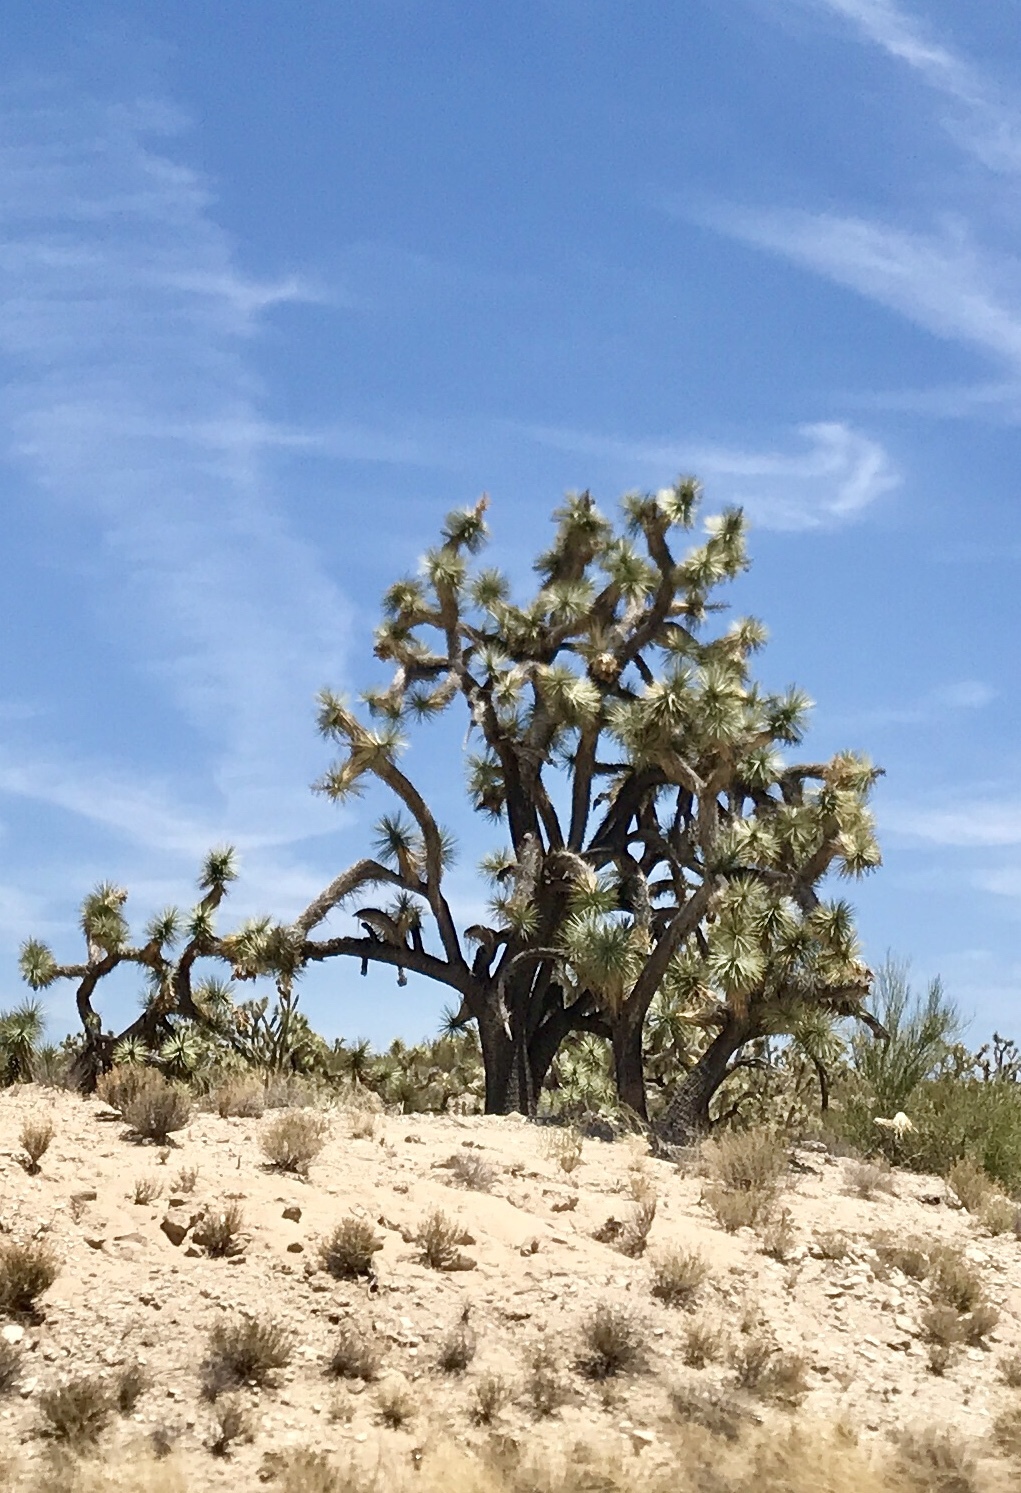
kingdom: Plantae
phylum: Tracheophyta
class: Liliopsida
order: Asparagales
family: Asparagaceae
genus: Yucca
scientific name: Yucca brevifolia
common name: Joshua tree
